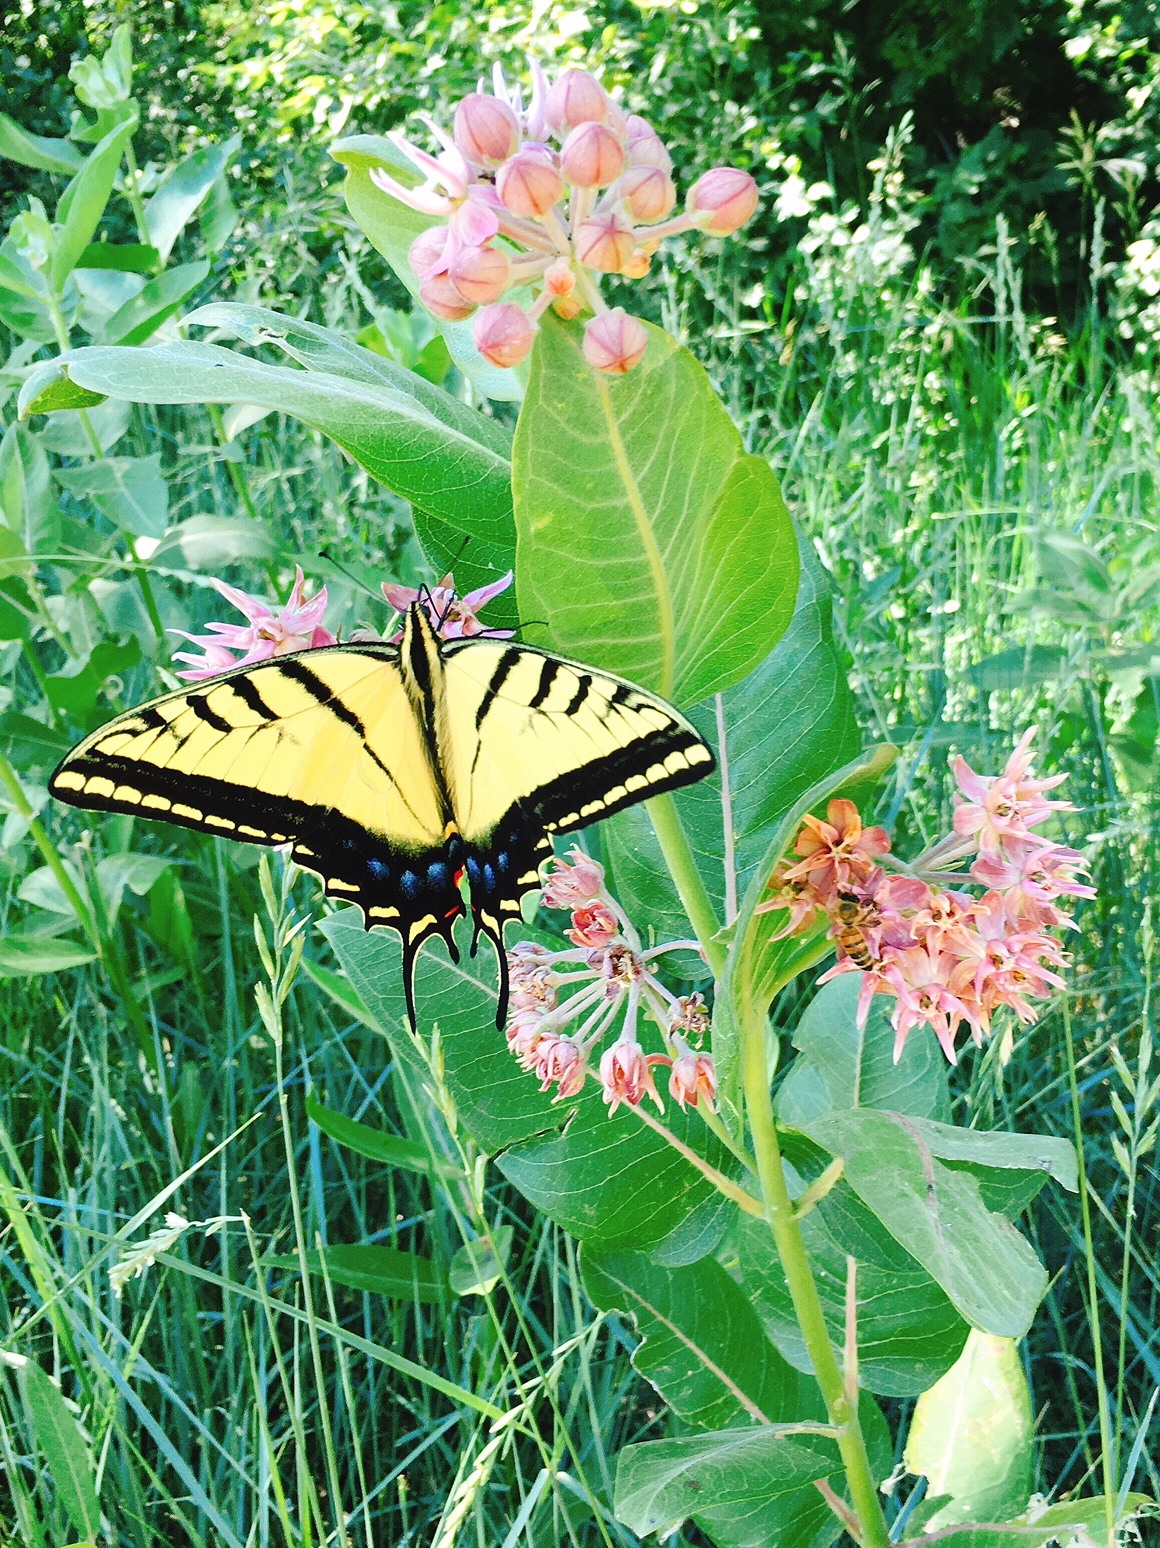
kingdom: Plantae
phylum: Tracheophyta
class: Magnoliopsida
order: Gentianales
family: Apocynaceae
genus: Asclepias
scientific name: Asclepias speciosa
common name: Showy milkweed
